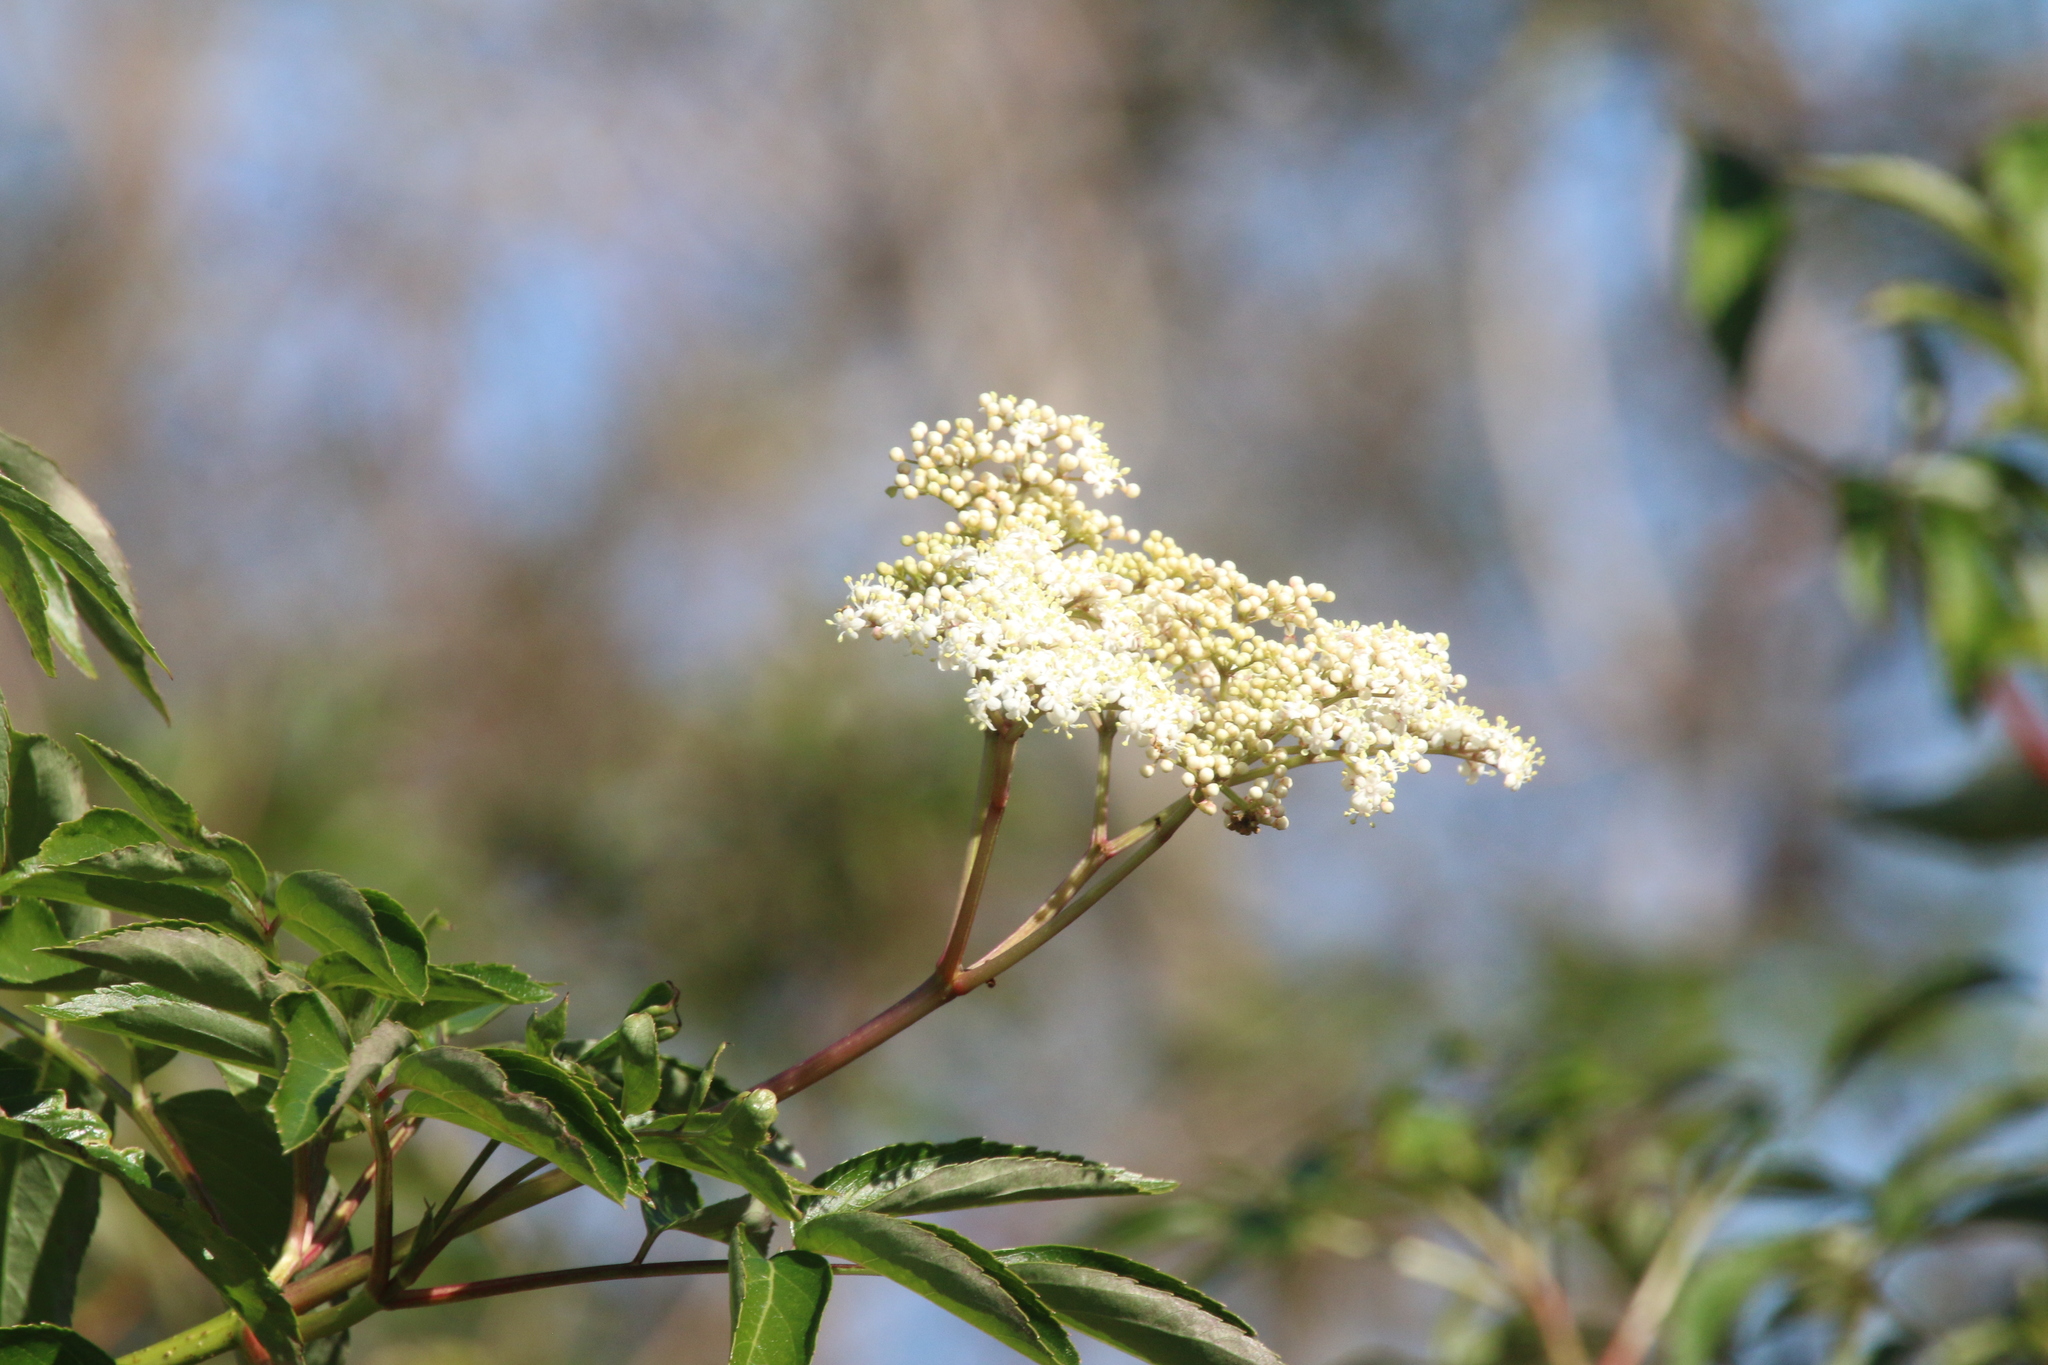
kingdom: Plantae
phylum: Tracheophyta
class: Magnoliopsida
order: Dipsacales
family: Viburnaceae
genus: Sambucus
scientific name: Sambucus canadensis
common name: American elder
